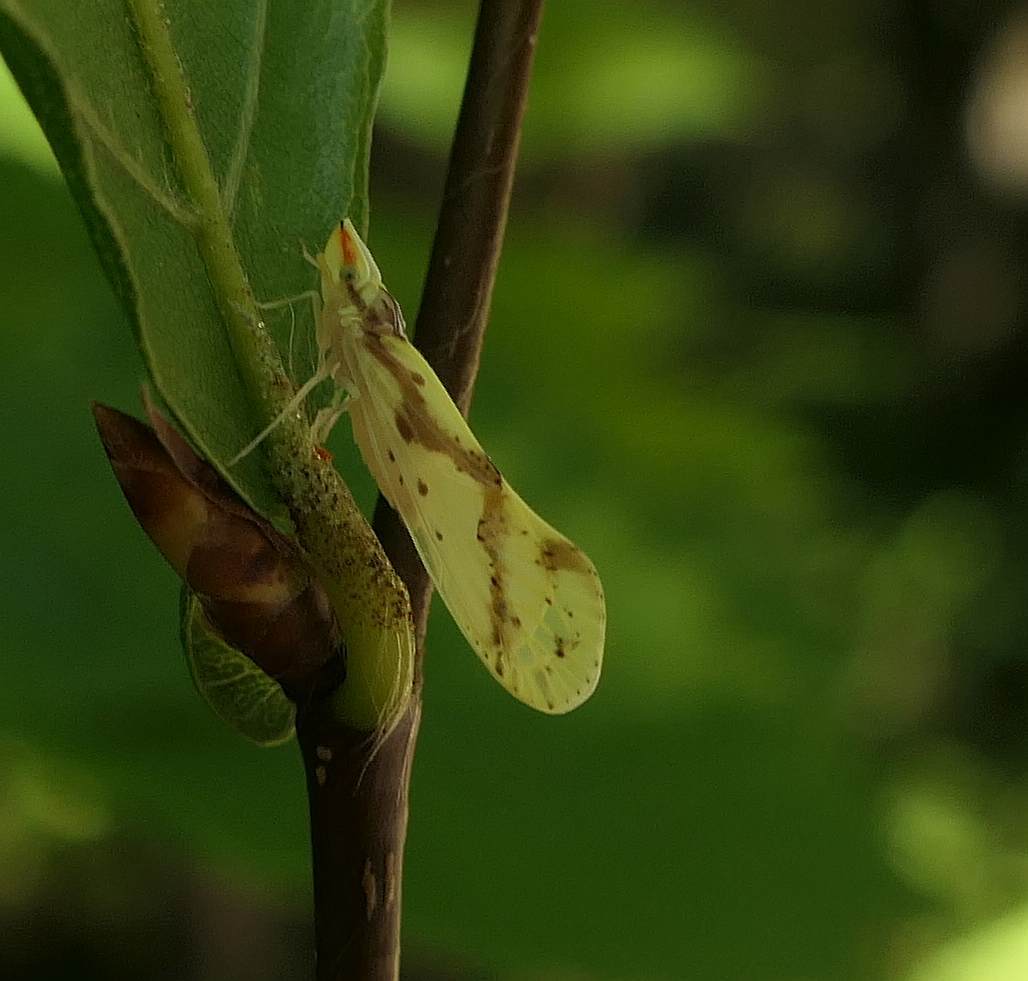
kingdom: Animalia
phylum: Arthropoda
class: Insecta
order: Hemiptera
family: Derbidae
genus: Otiocerus
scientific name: Otiocerus wolfii
